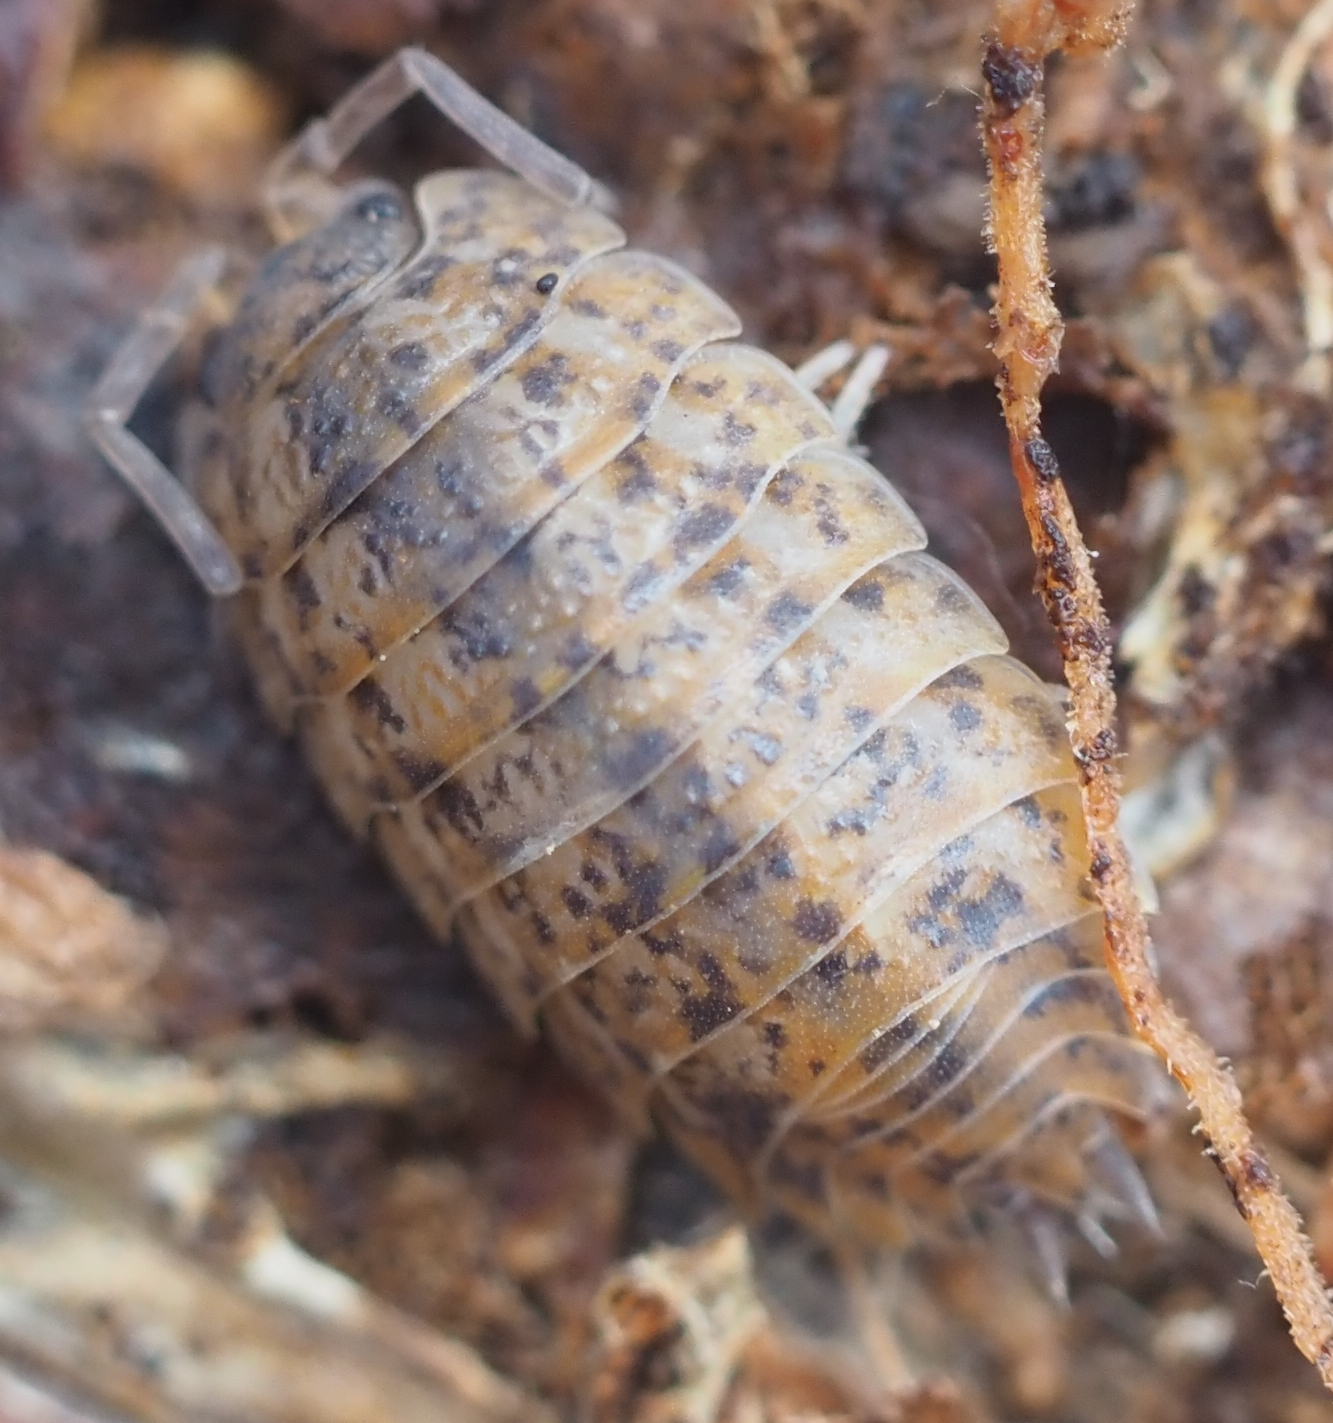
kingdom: Animalia
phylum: Arthropoda
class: Malacostraca
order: Isopoda
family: Trachelipodidae
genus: Trachelipus
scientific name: Trachelipus rathkii
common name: Isopod
